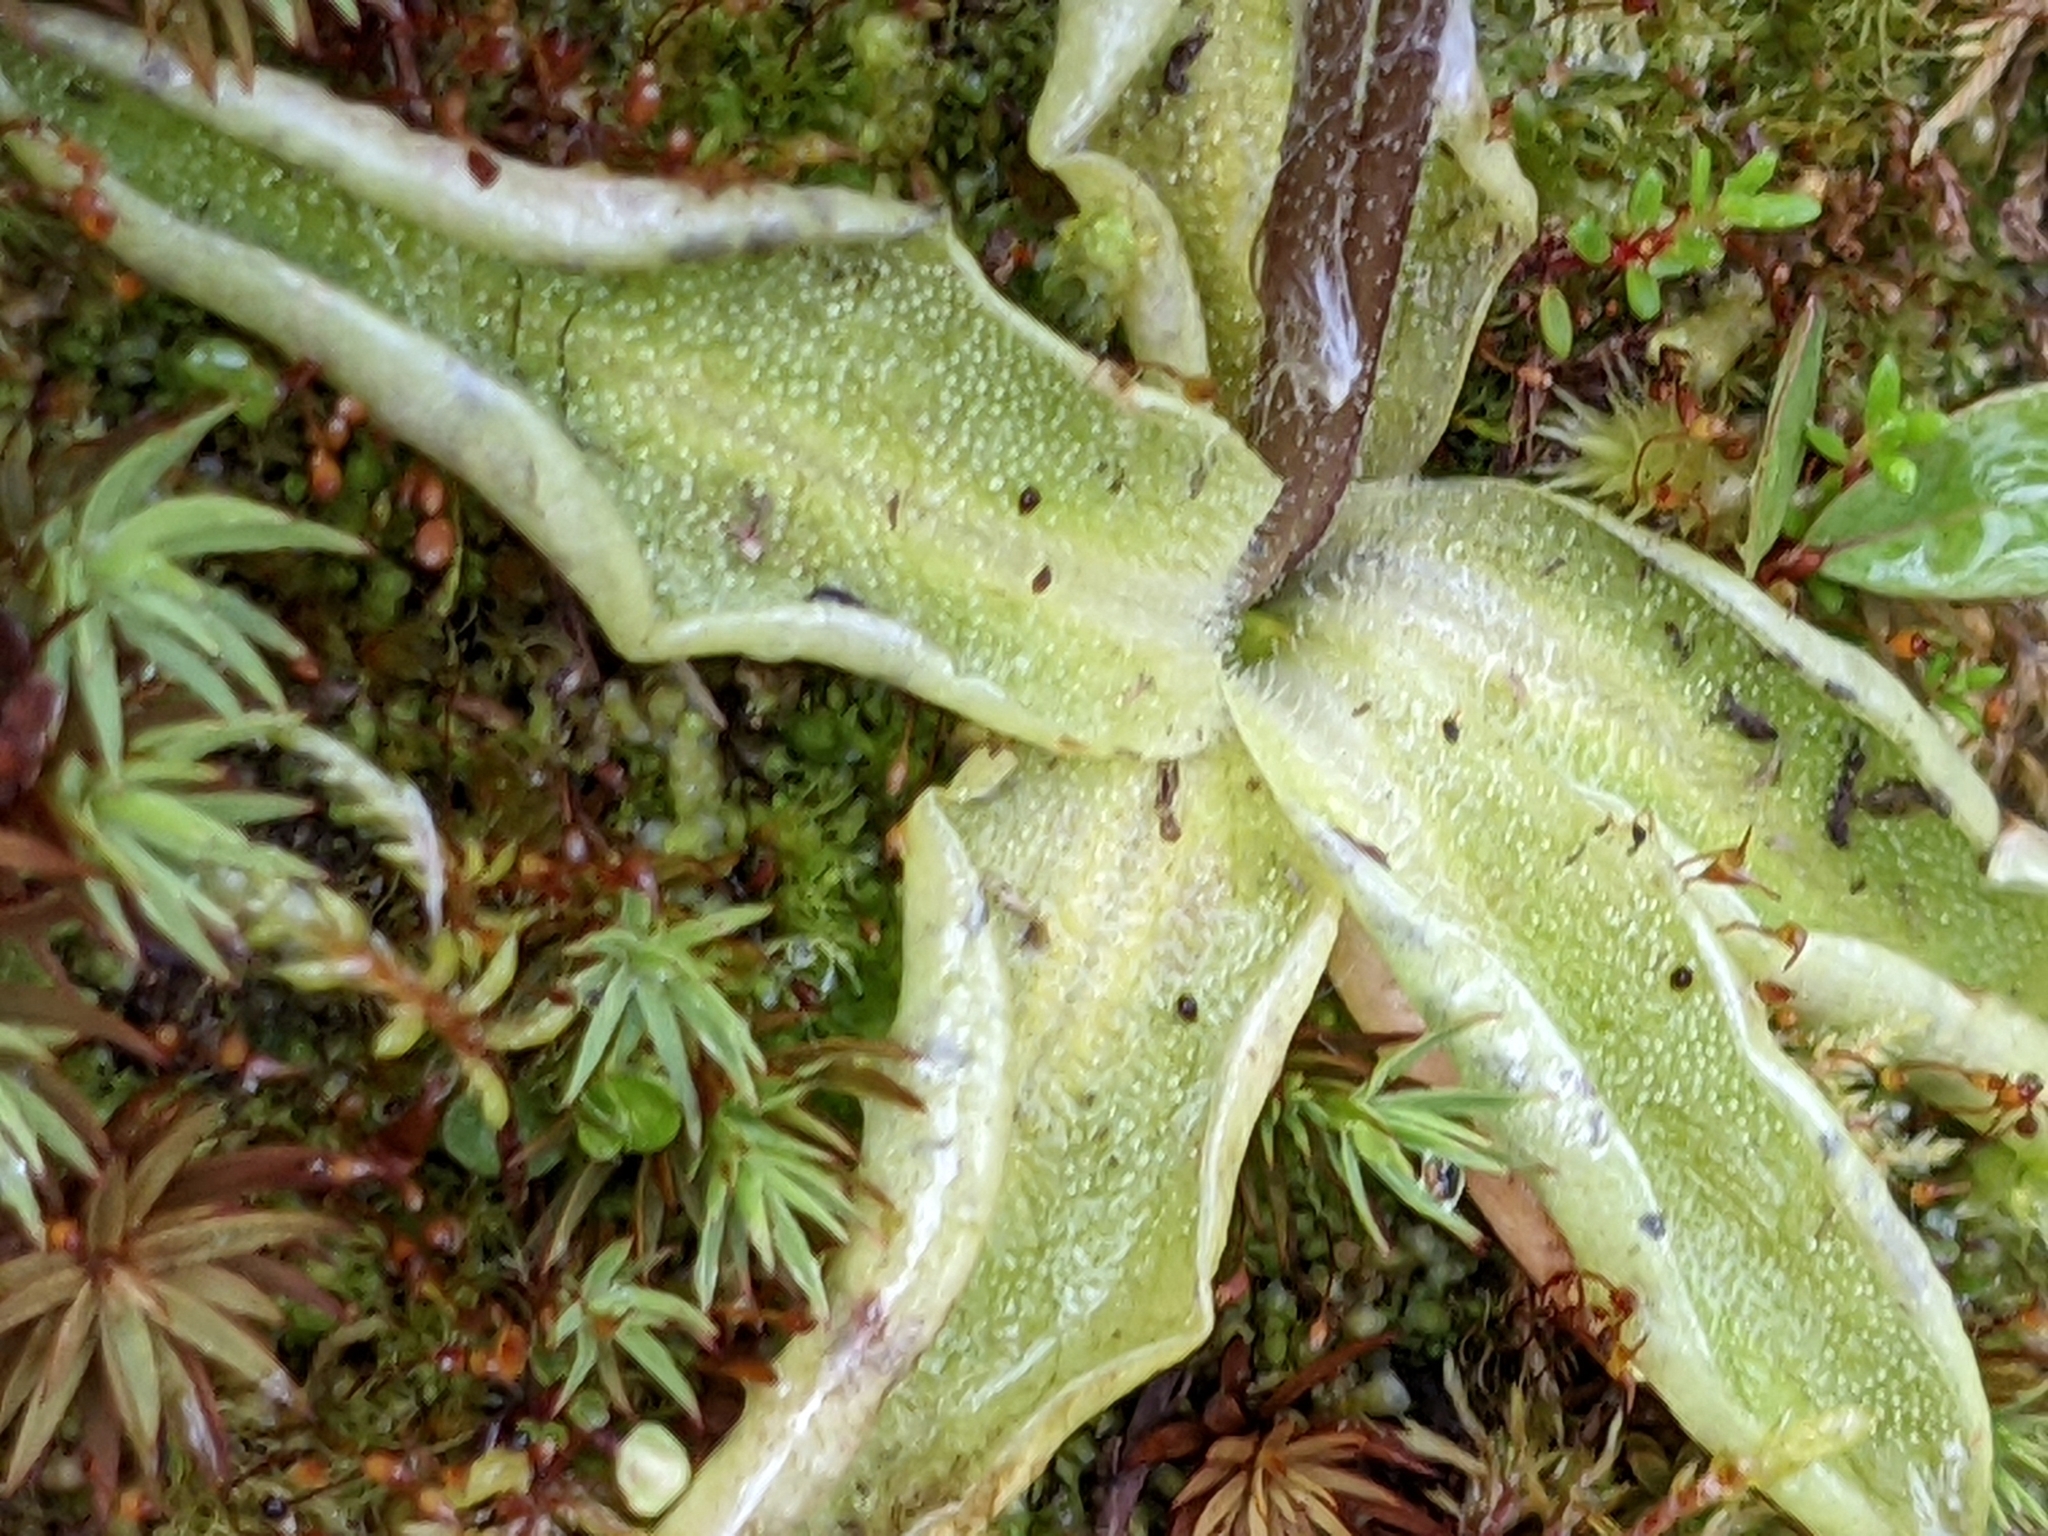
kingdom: Plantae
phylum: Tracheophyta
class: Magnoliopsida
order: Lamiales
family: Lentibulariaceae
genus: Pinguicula
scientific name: Pinguicula vulgaris
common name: Common butterwort
